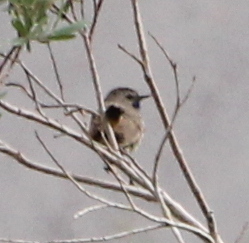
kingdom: Animalia
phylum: Chordata
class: Aves
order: Passeriformes
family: Muscicapidae
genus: Luscinia
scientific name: Luscinia svecica
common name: Bluethroat
